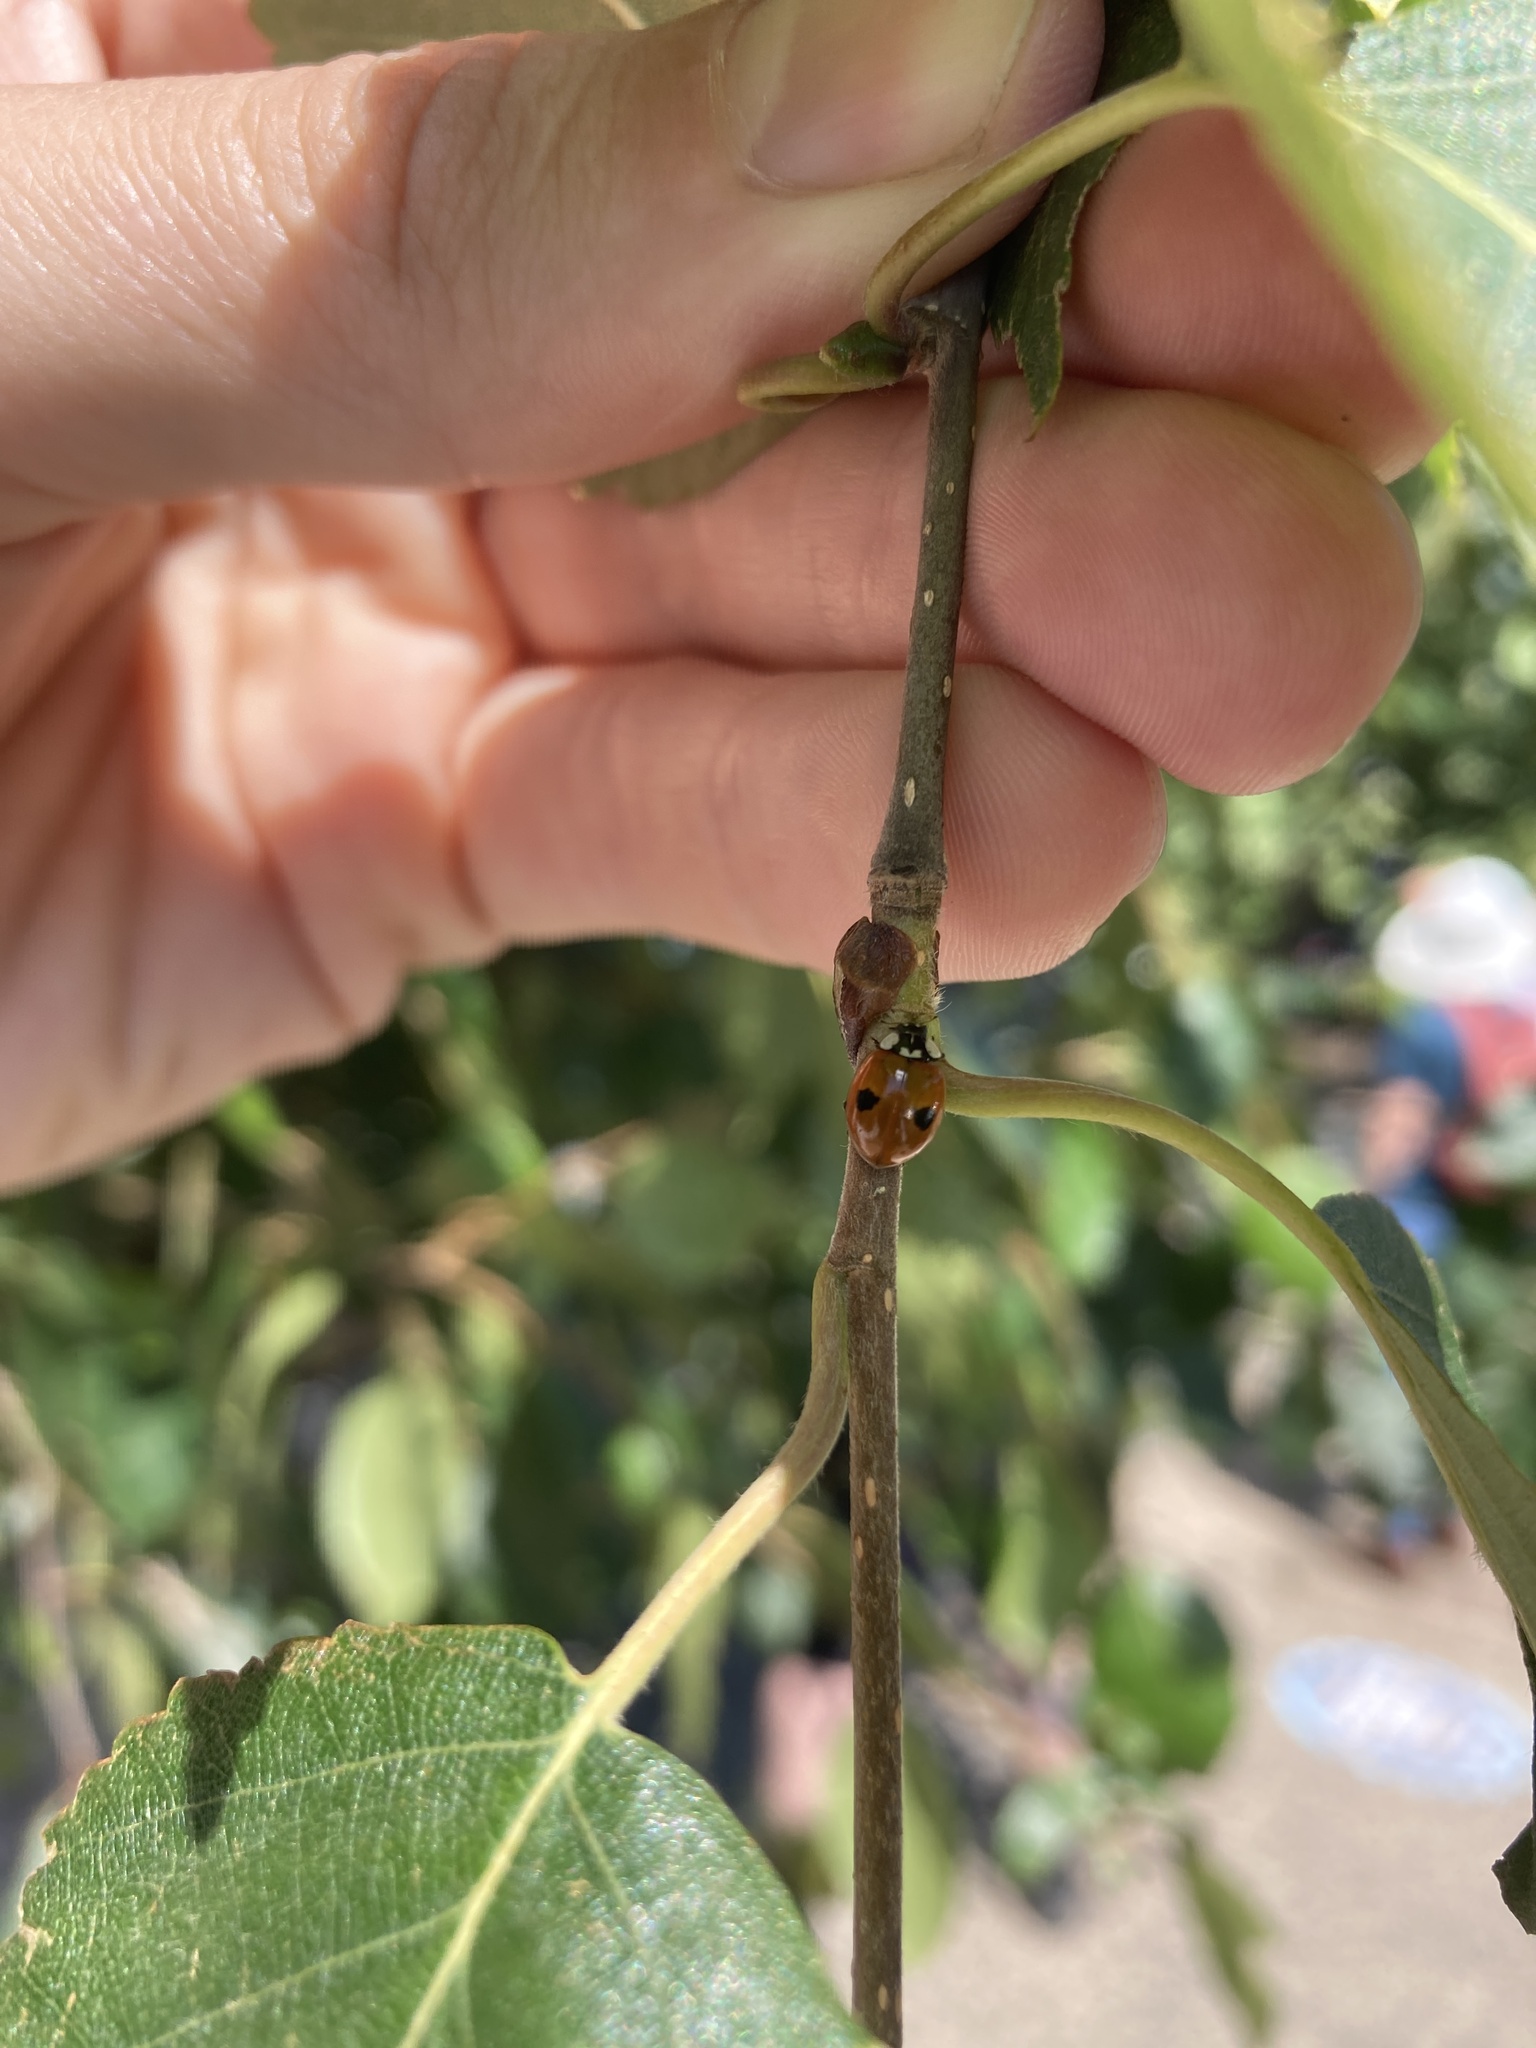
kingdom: Animalia
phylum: Arthropoda
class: Insecta
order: Coleoptera
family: Coccinellidae
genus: Adalia
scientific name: Adalia bipunctata
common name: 2-spot ladybird
